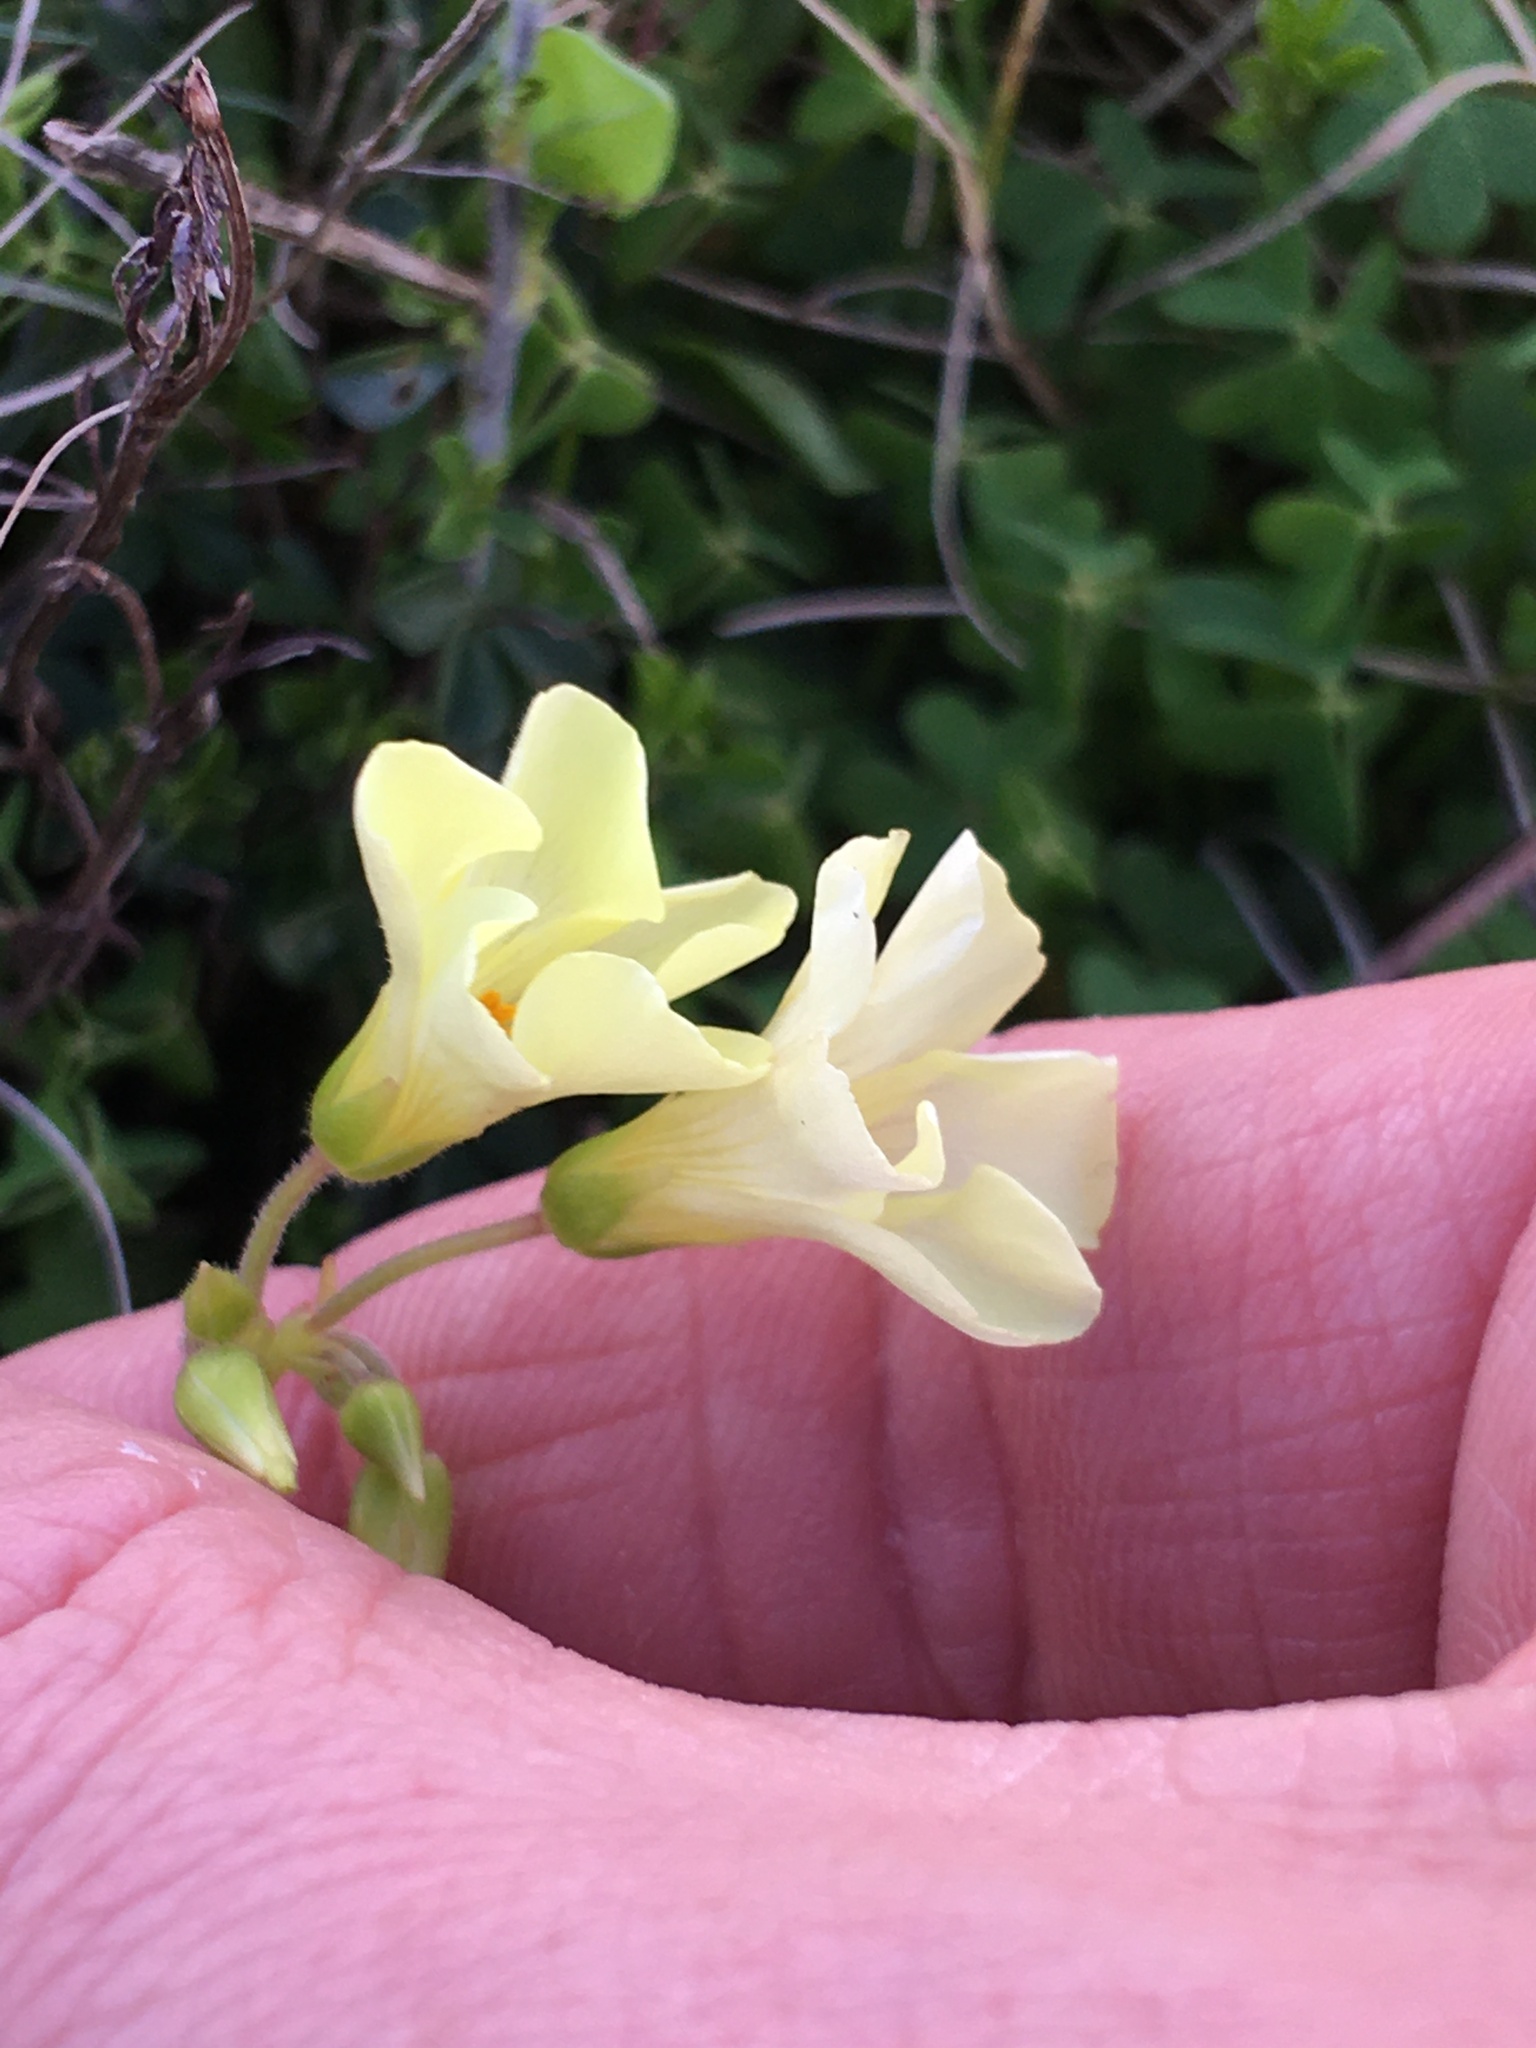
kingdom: Plantae
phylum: Tracheophyta
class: Magnoliopsida
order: Oxalidales
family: Oxalidaceae
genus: Oxalis
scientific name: Oxalis pes-caprae
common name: Bermuda-buttercup
